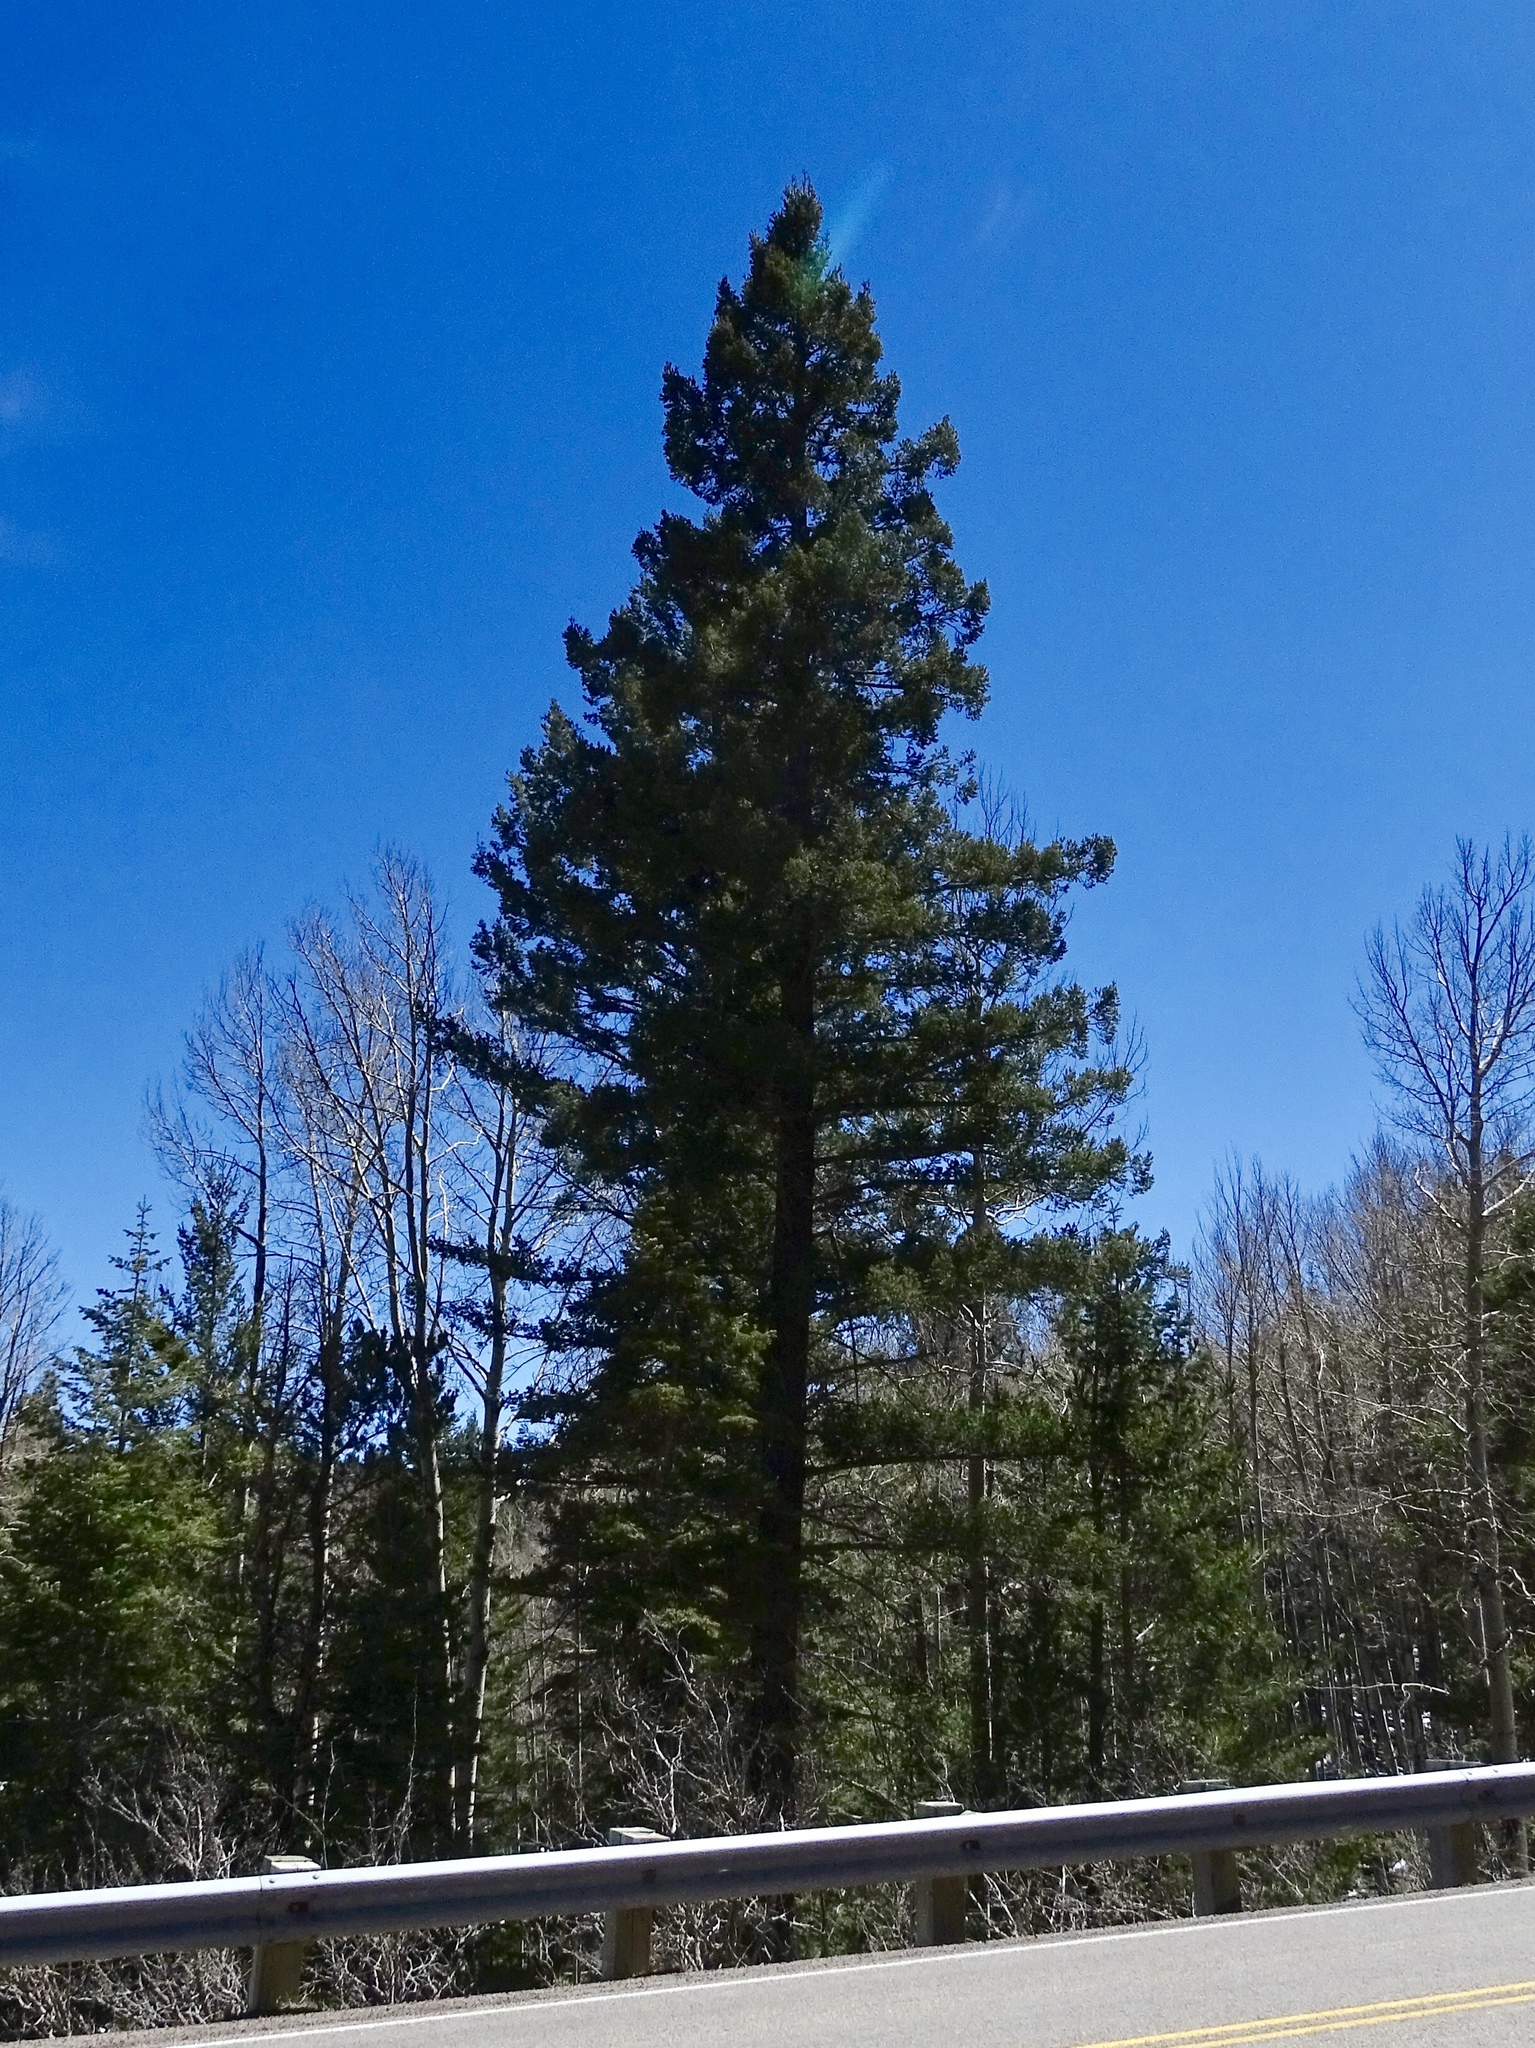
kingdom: Plantae
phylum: Tracheophyta
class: Pinopsida
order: Pinales
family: Pinaceae
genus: Pseudotsuga
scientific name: Pseudotsuga menziesii
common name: Douglas fir
